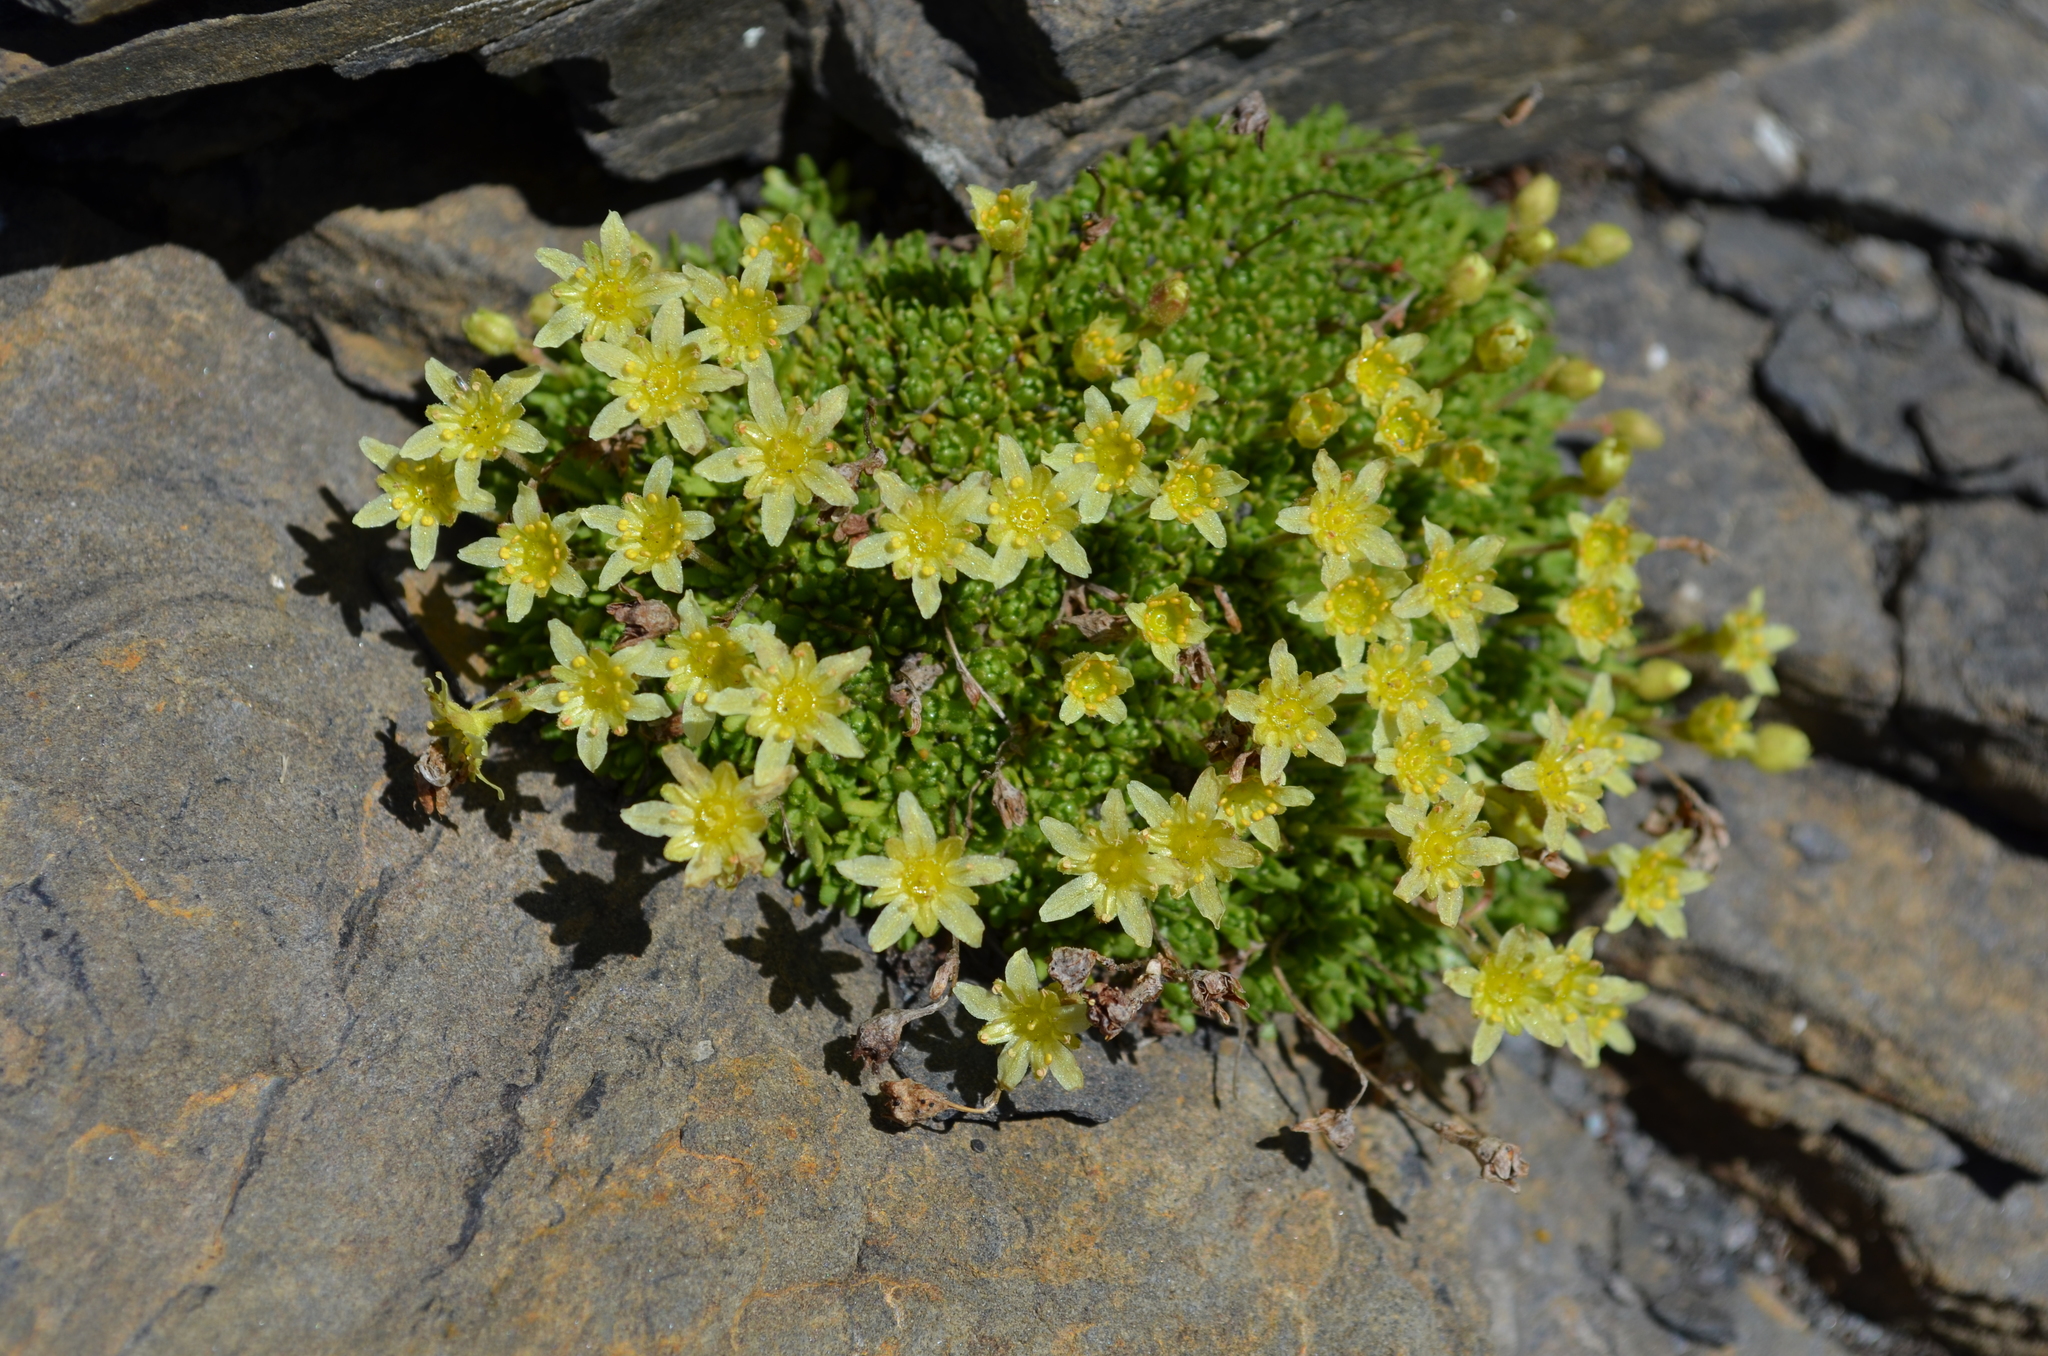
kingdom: Plantae
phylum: Tracheophyta
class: Magnoliopsida
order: Saxifragales
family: Saxifragaceae
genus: Saxifraga
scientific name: Saxifraga moschata
